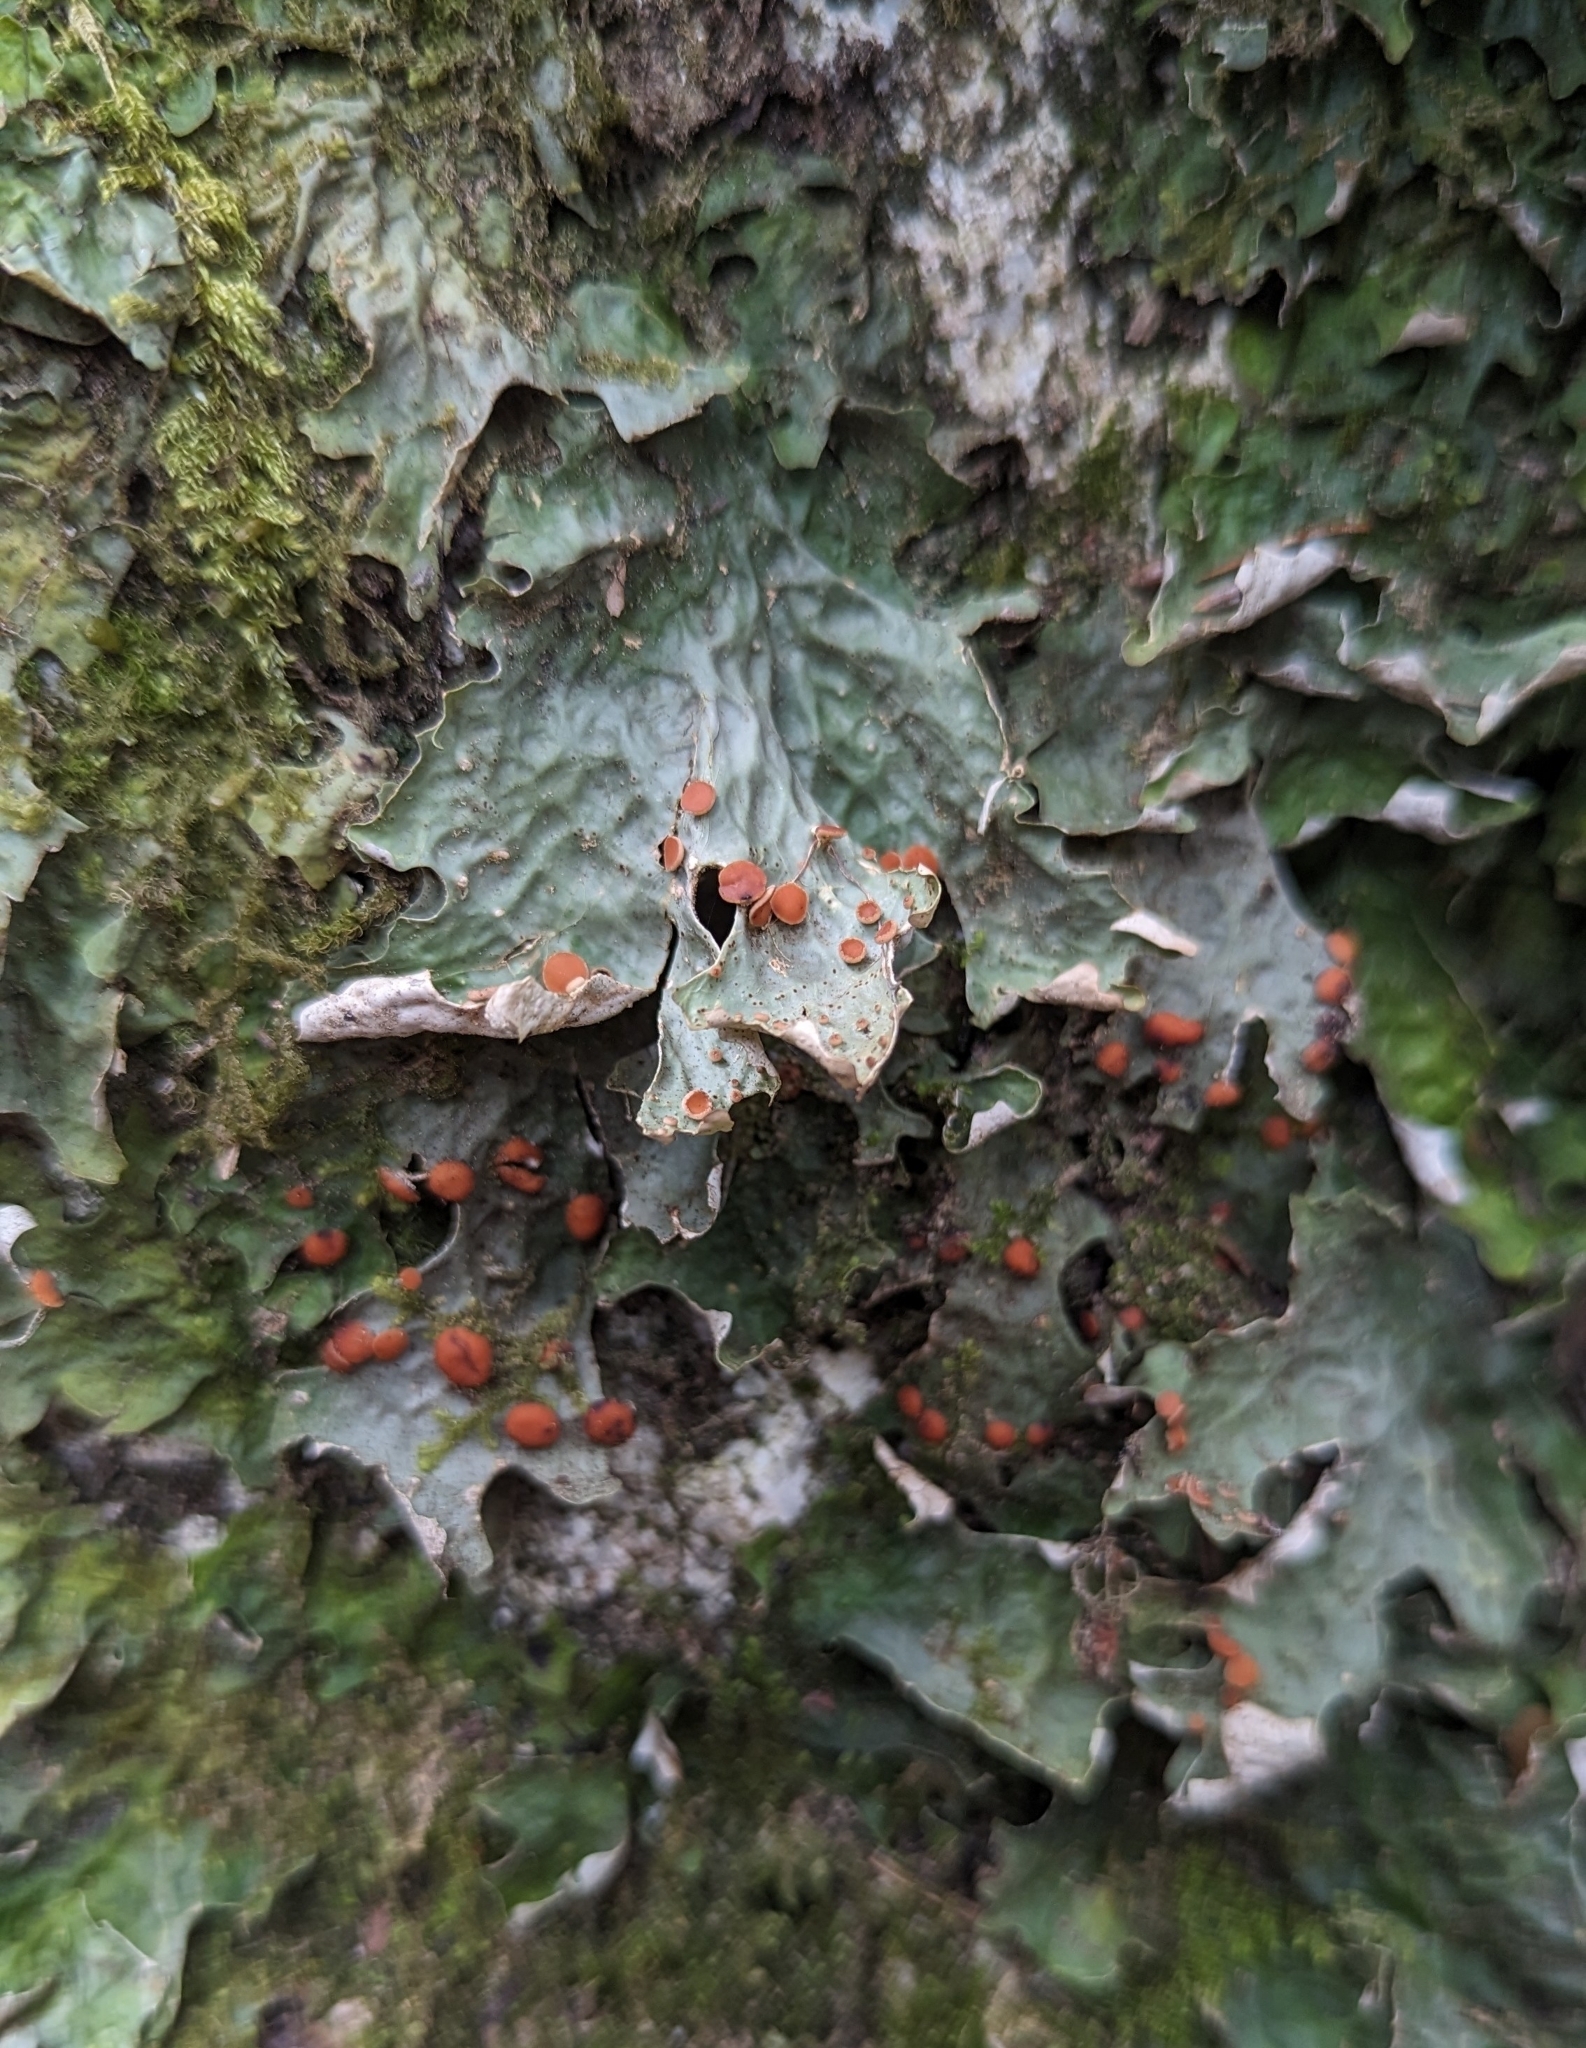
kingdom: Fungi
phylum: Ascomycota
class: Lecanoromycetes
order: Peltigerales
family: Lobariaceae
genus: Lobaria
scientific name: Lobaria linita
